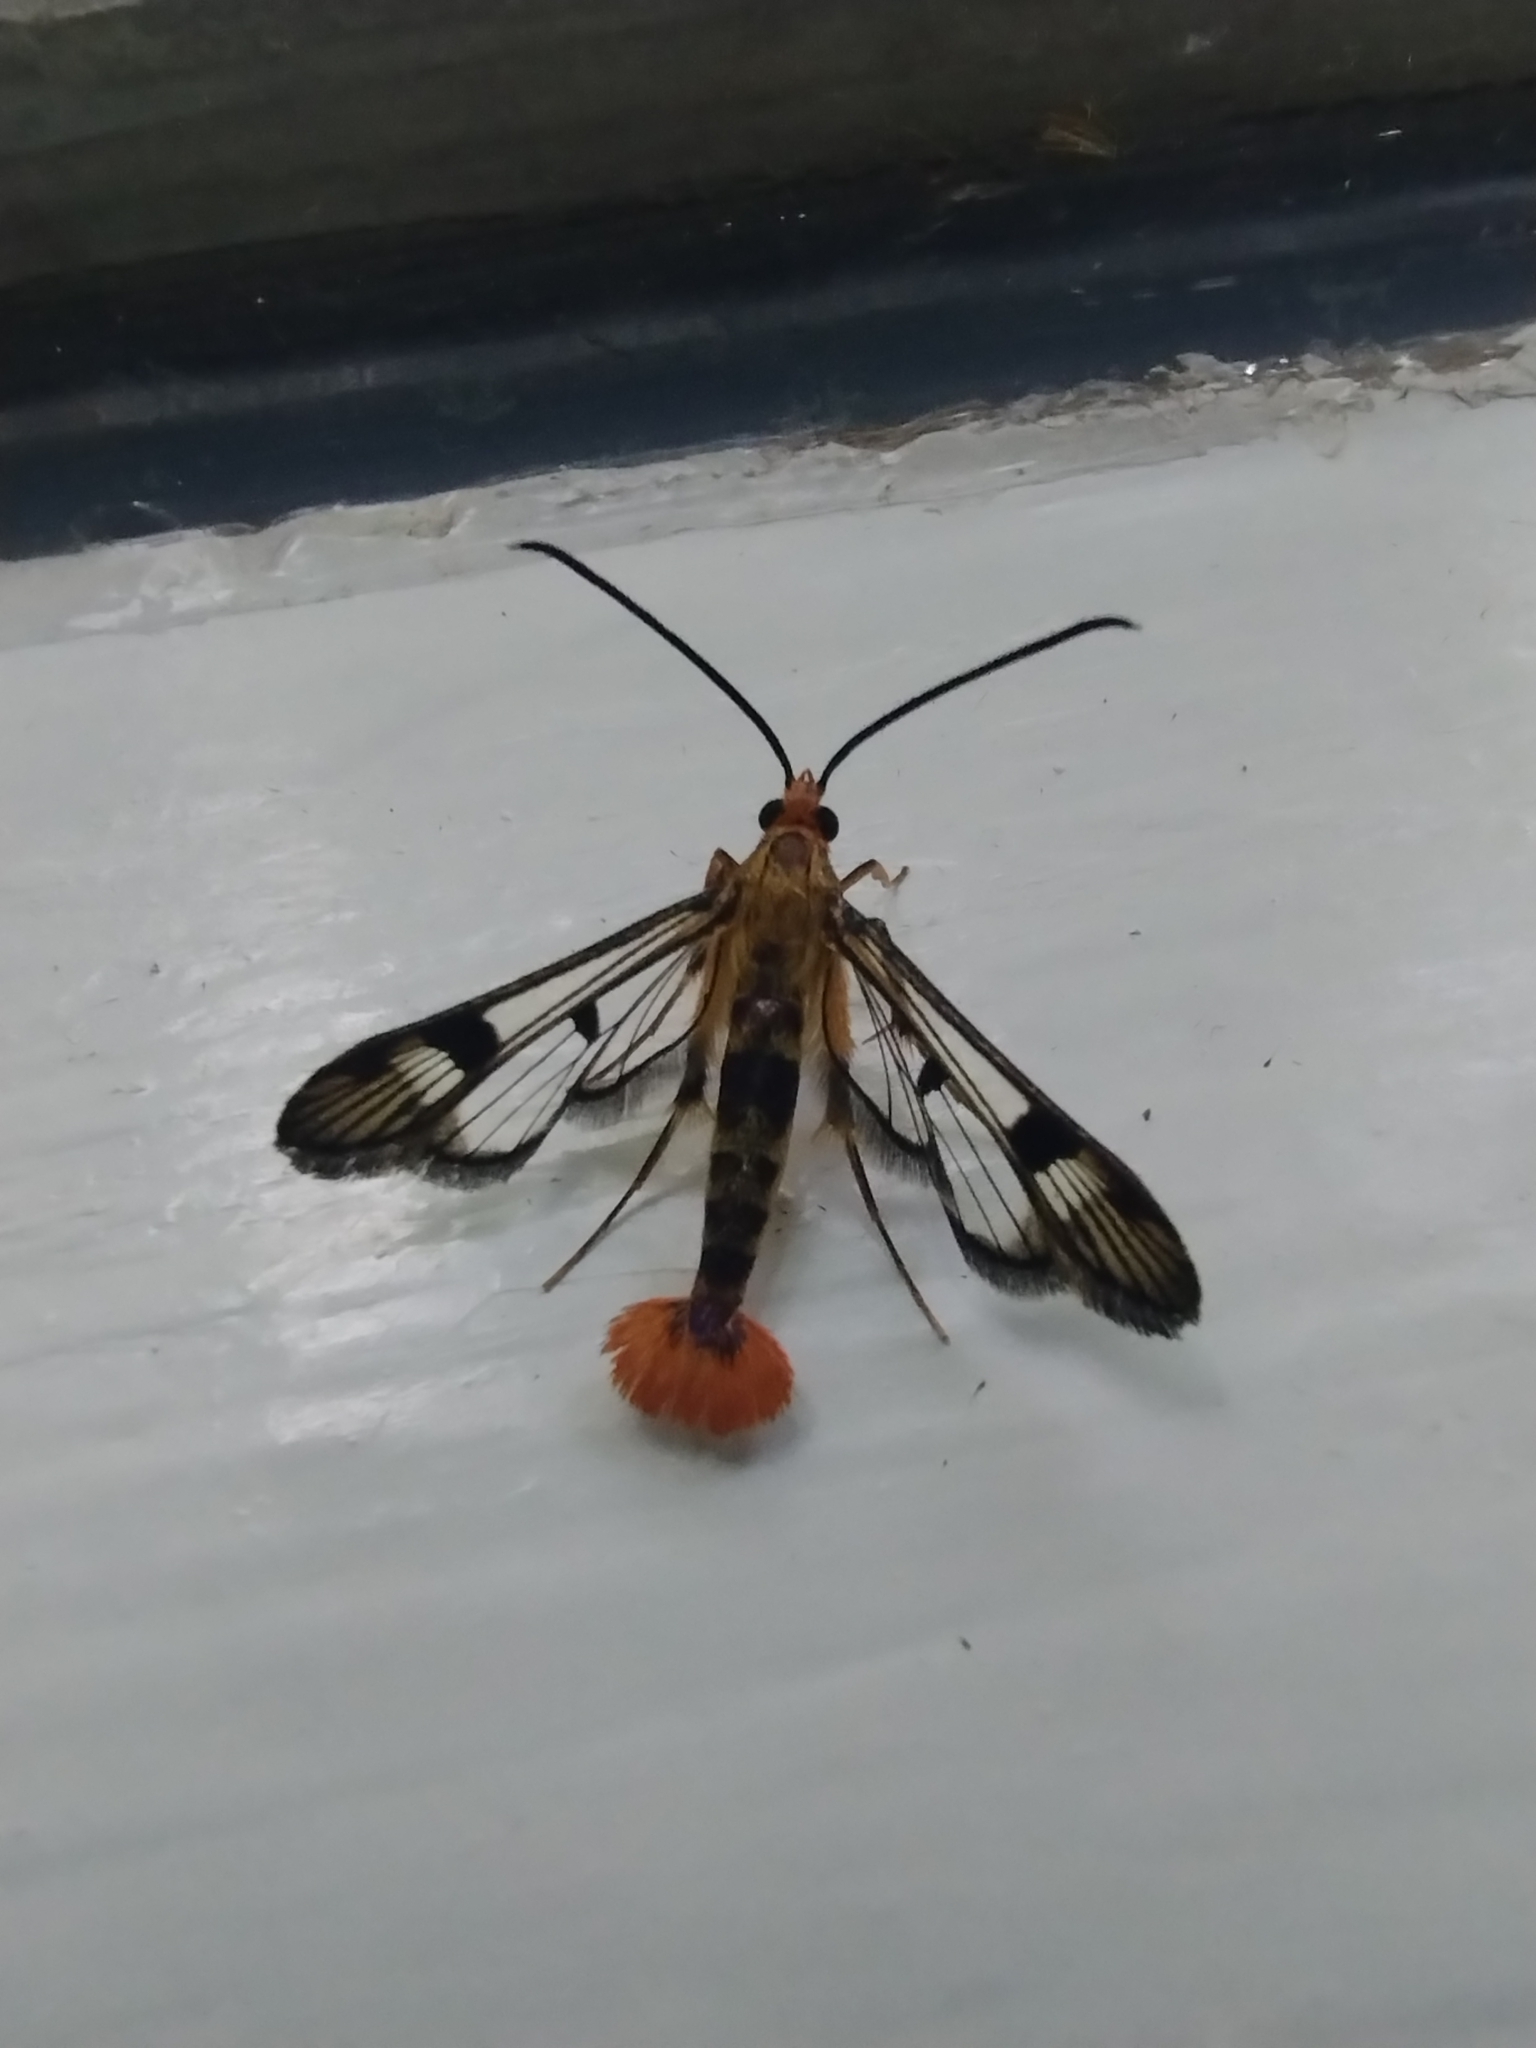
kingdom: Animalia
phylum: Arthropoda
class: Insecta
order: Lepidoptera
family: Sesiidae
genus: Synanthedon
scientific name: Synanthedon acerni
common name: Maple callus borer moth
